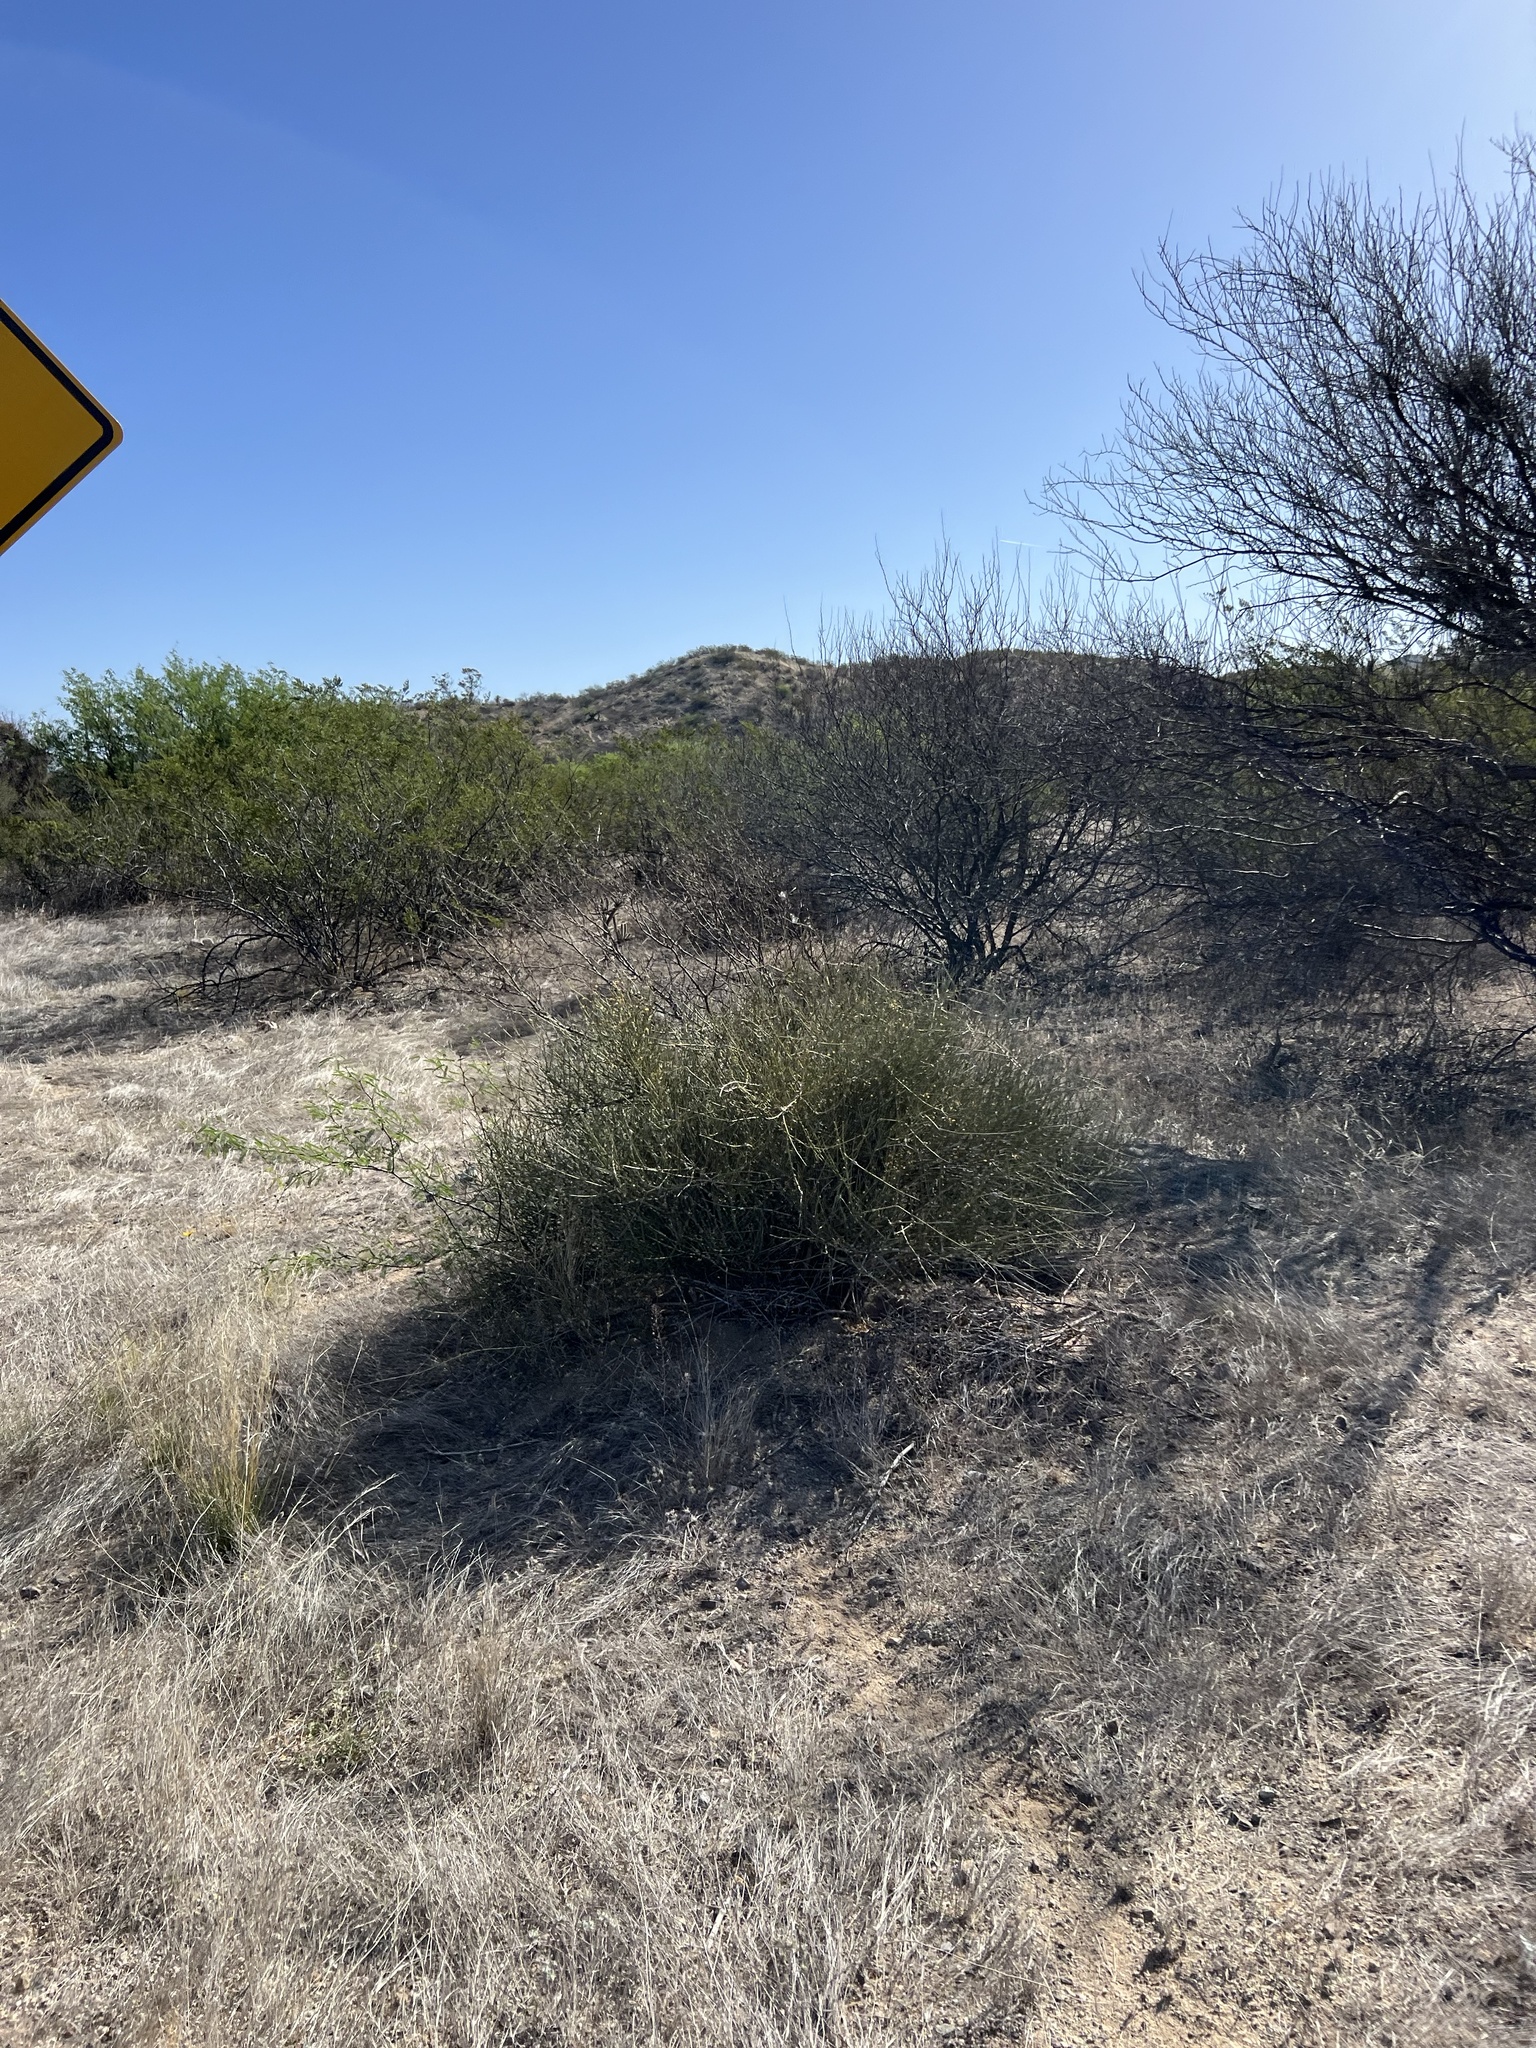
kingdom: Plantae
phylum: Tracheophyta
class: Gnetopsida
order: Ephedrales
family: Ephedraceae
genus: Ephedra
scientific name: Ephedra trifurca
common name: Mexican-tea
